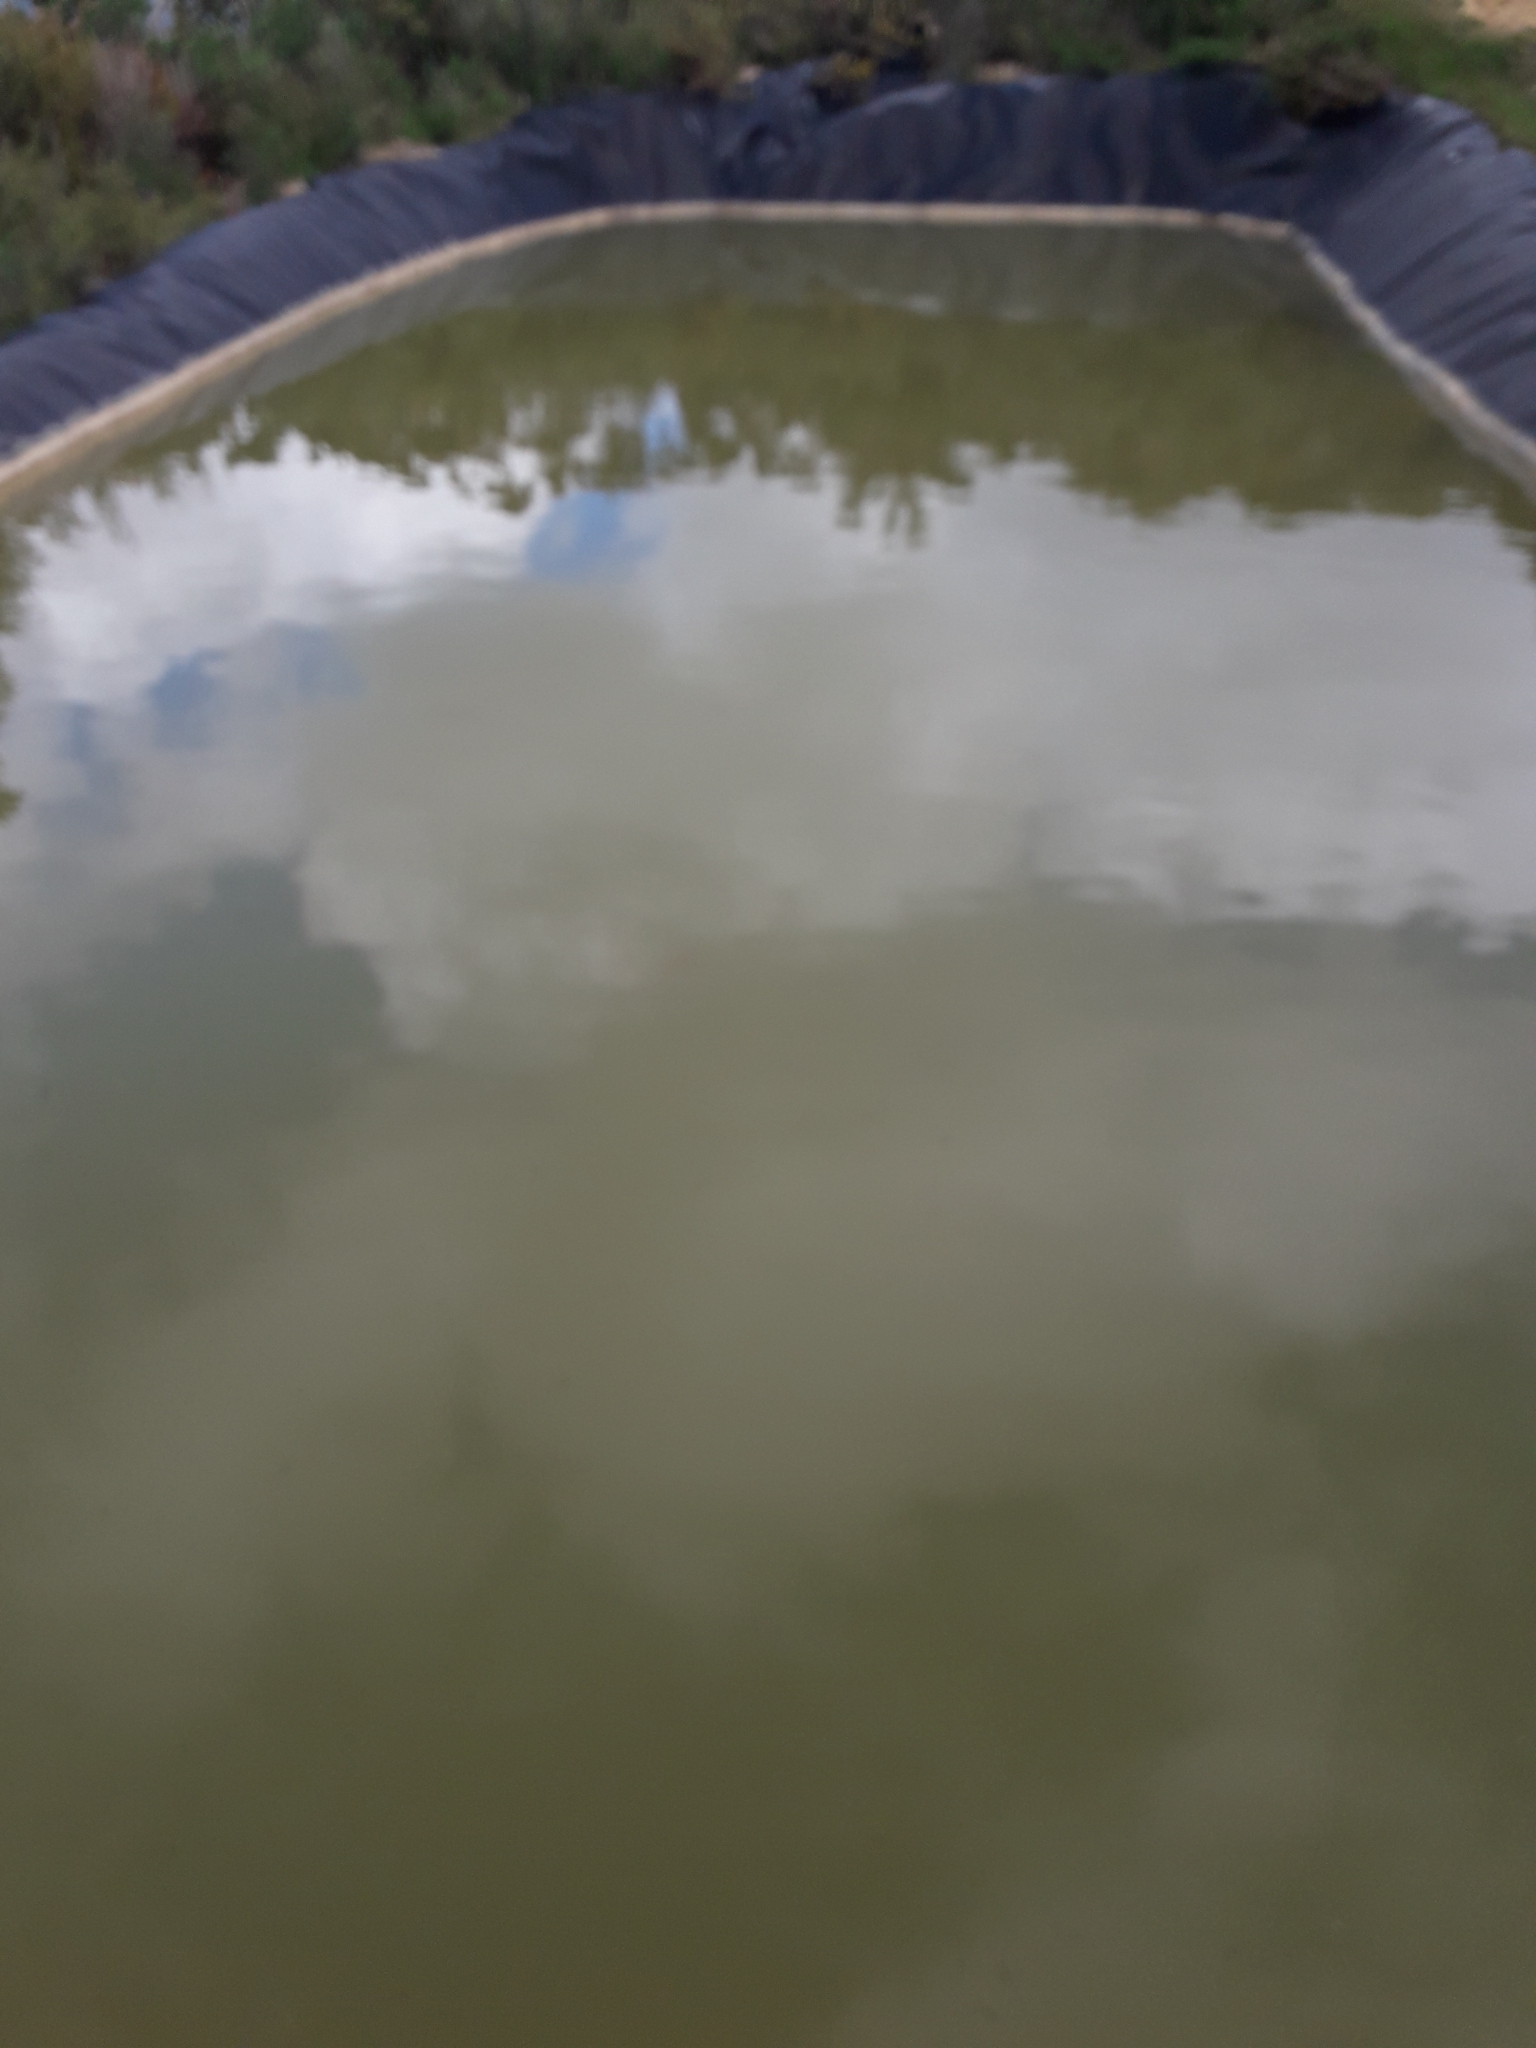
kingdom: Animalia
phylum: Chordata
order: Cypriniformes
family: Cyprinidae
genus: Carassius
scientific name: Carassius auratus
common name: Goldfish
